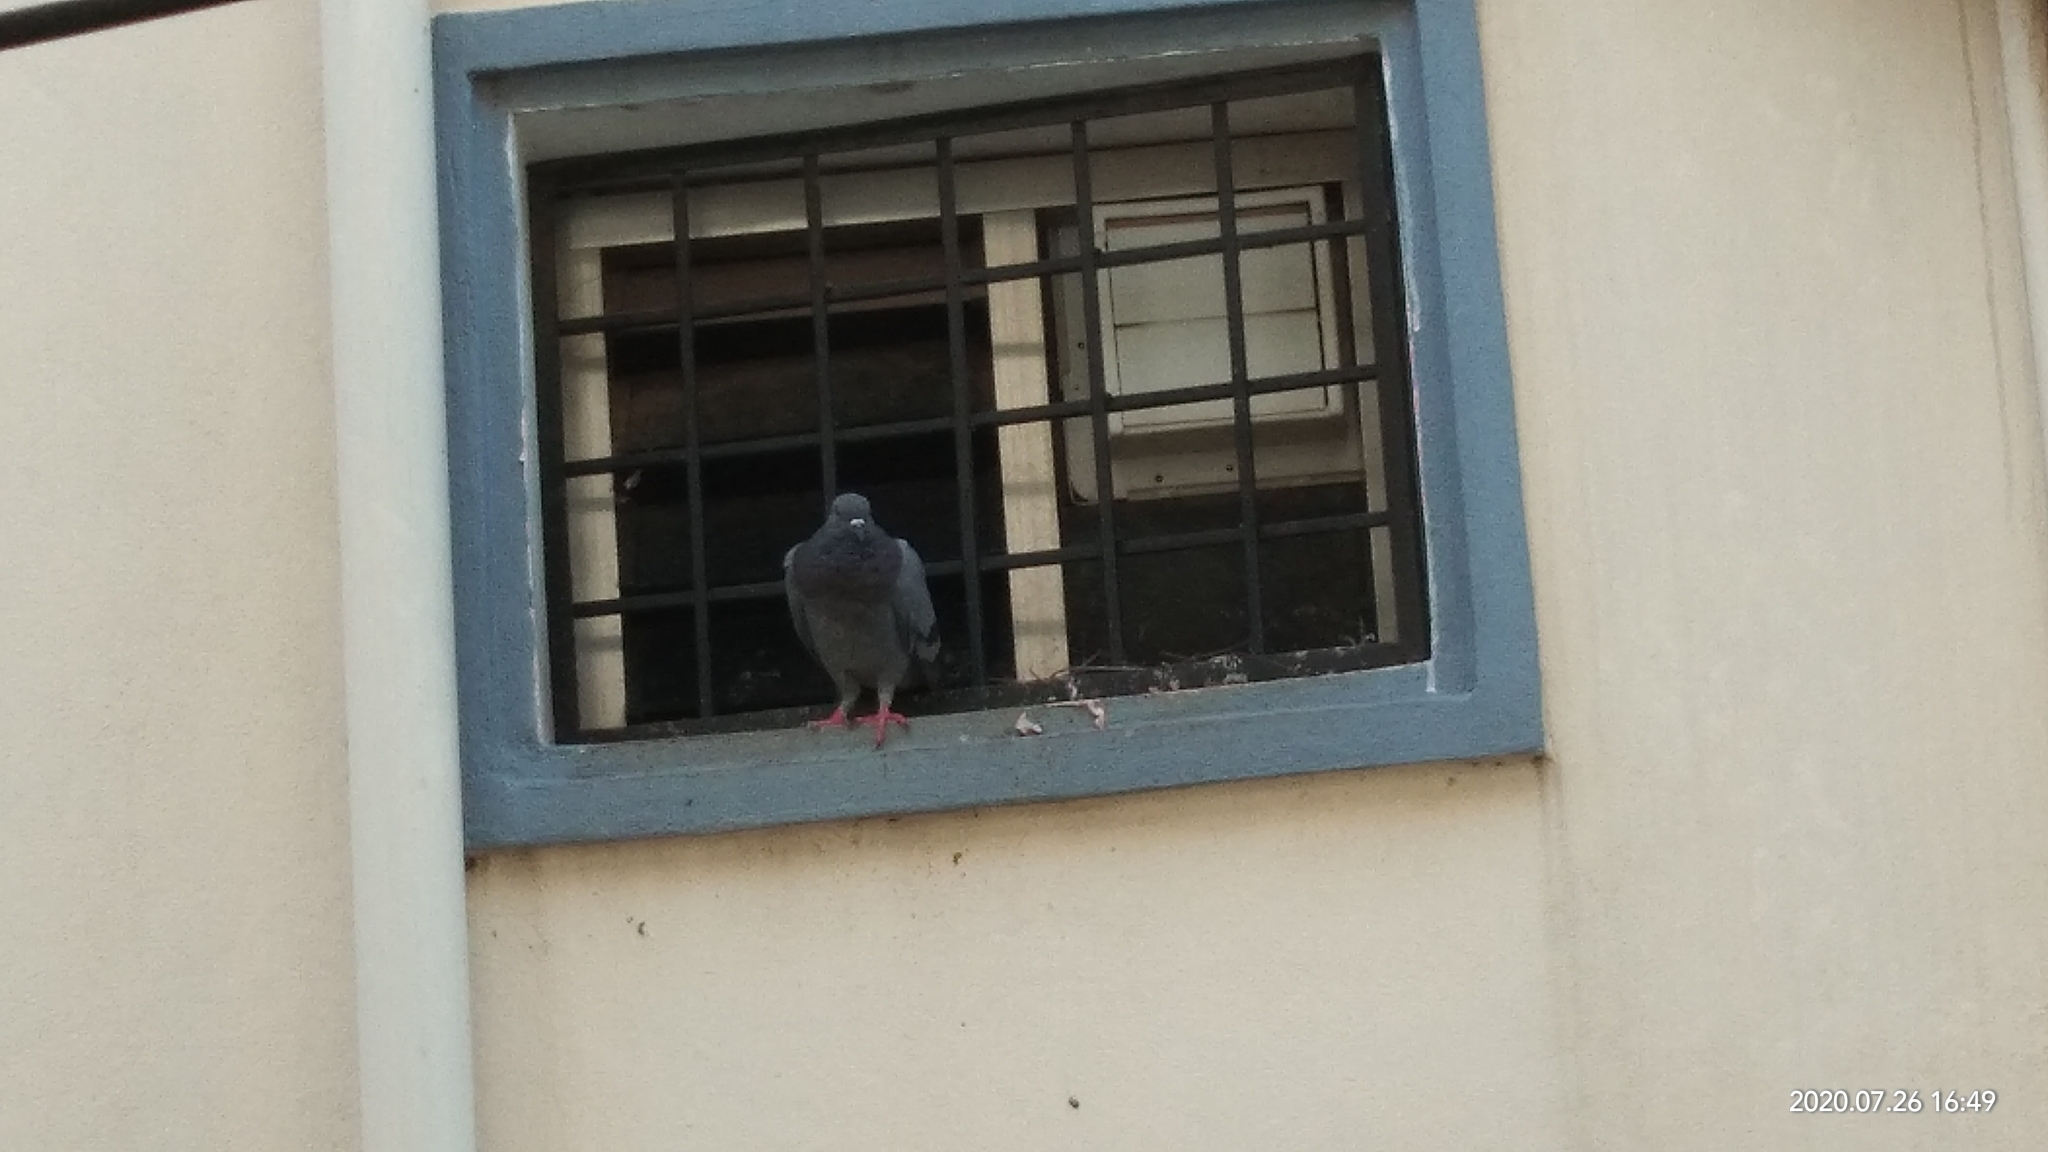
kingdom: Animalia
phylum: Chordata
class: Aves
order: Columbiformes
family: Columbidae
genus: Columba
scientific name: Columba livia
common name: Rock pigeon
